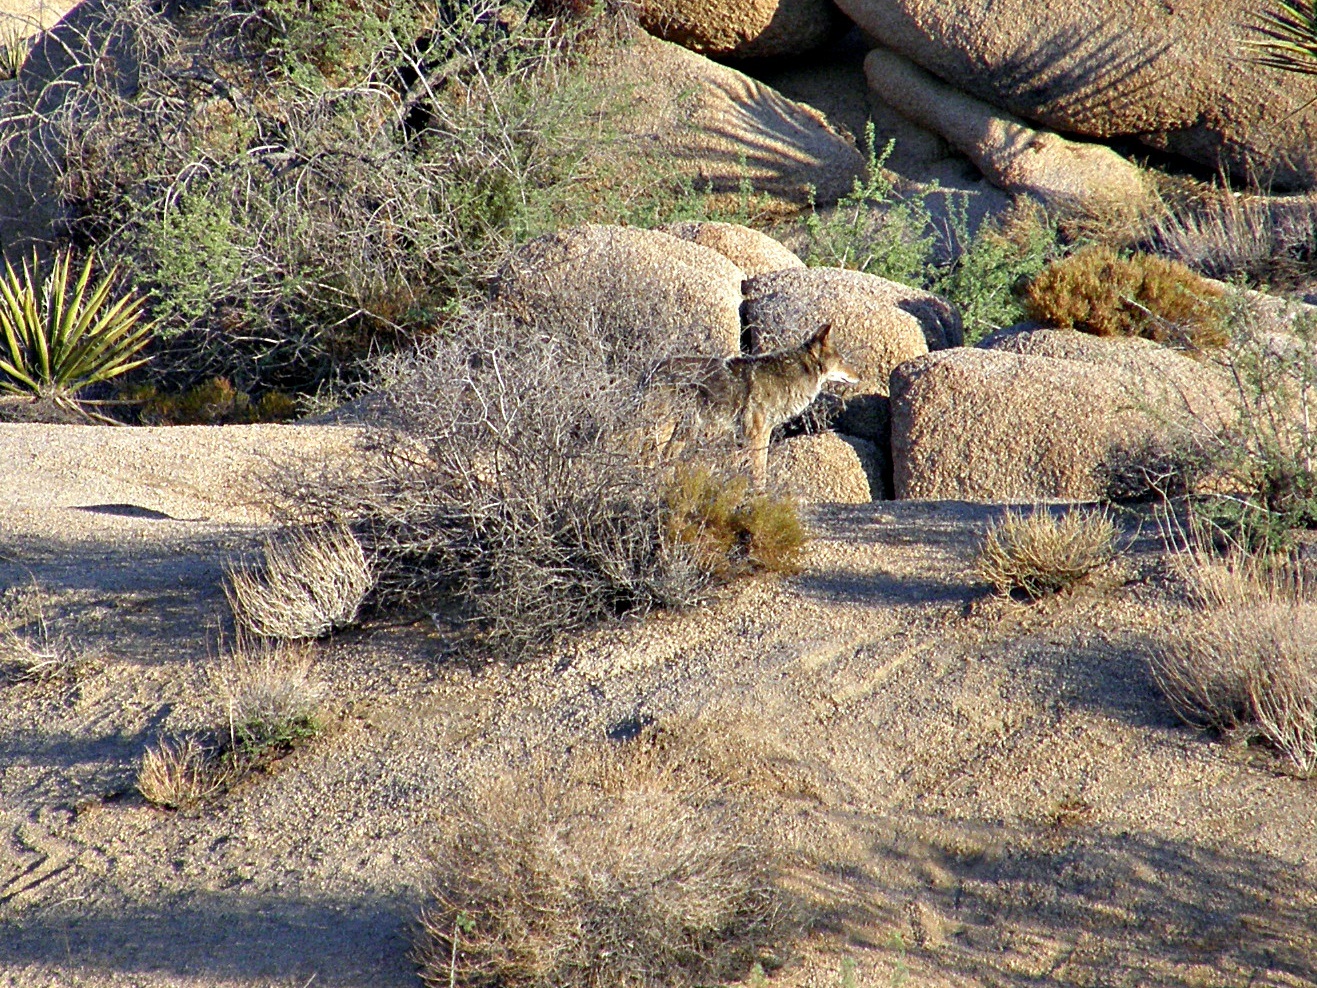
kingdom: Animalia
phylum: Chordata
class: Mammalia
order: Carnivora
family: Canidae
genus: Canis
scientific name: Canis latrans
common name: Coyote
